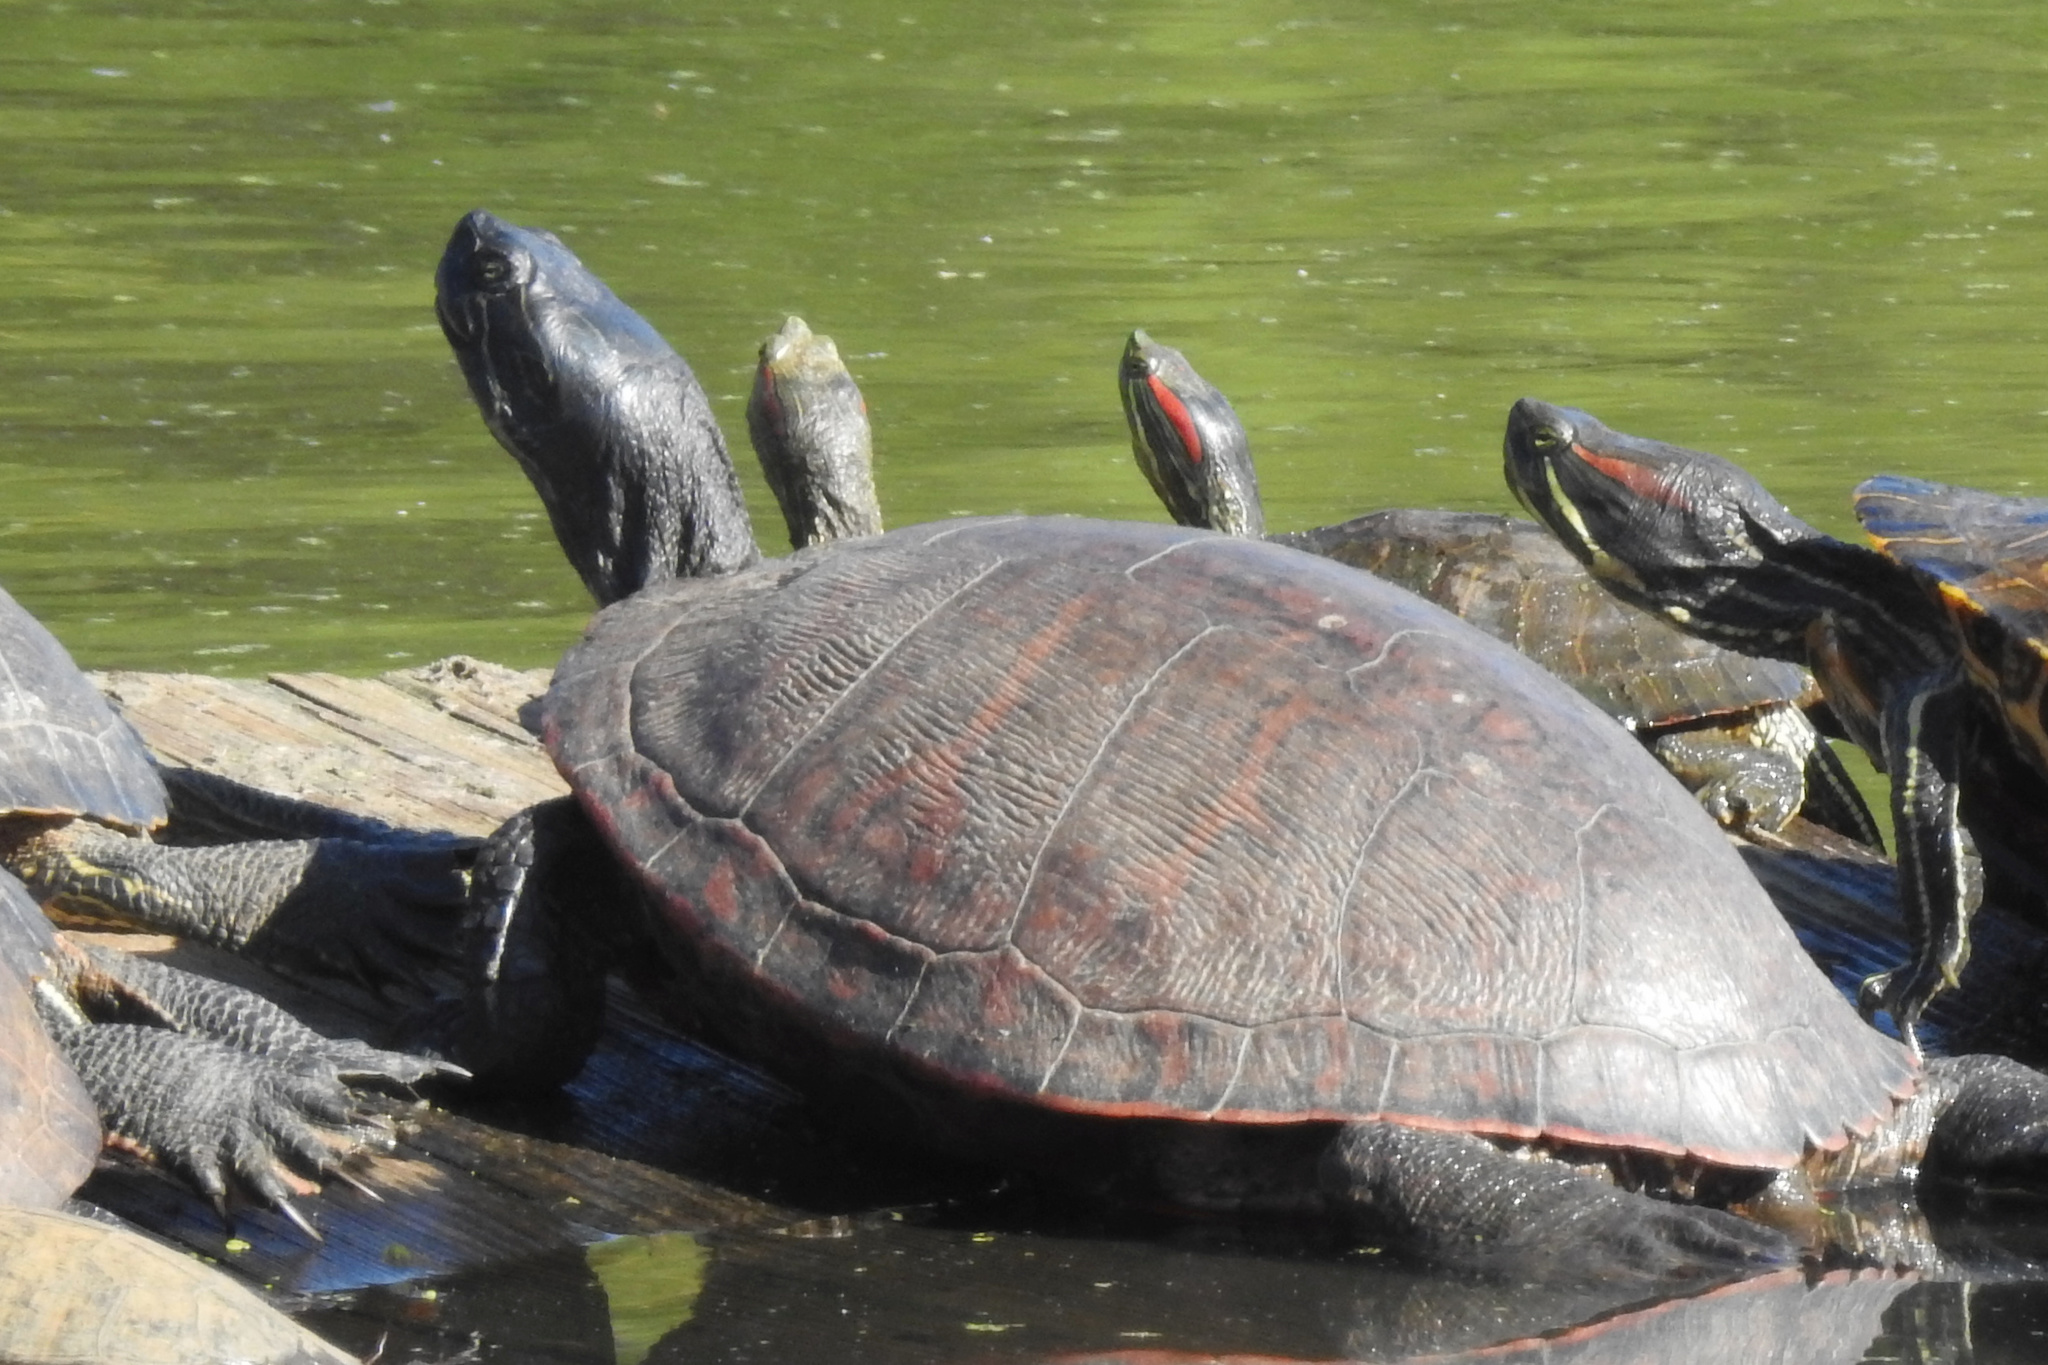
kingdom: Animalia
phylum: Chordata
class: Testudines
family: Emydidae
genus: Pseudemys
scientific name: Pseudemys rubriventris
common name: American red-bellied turtle
